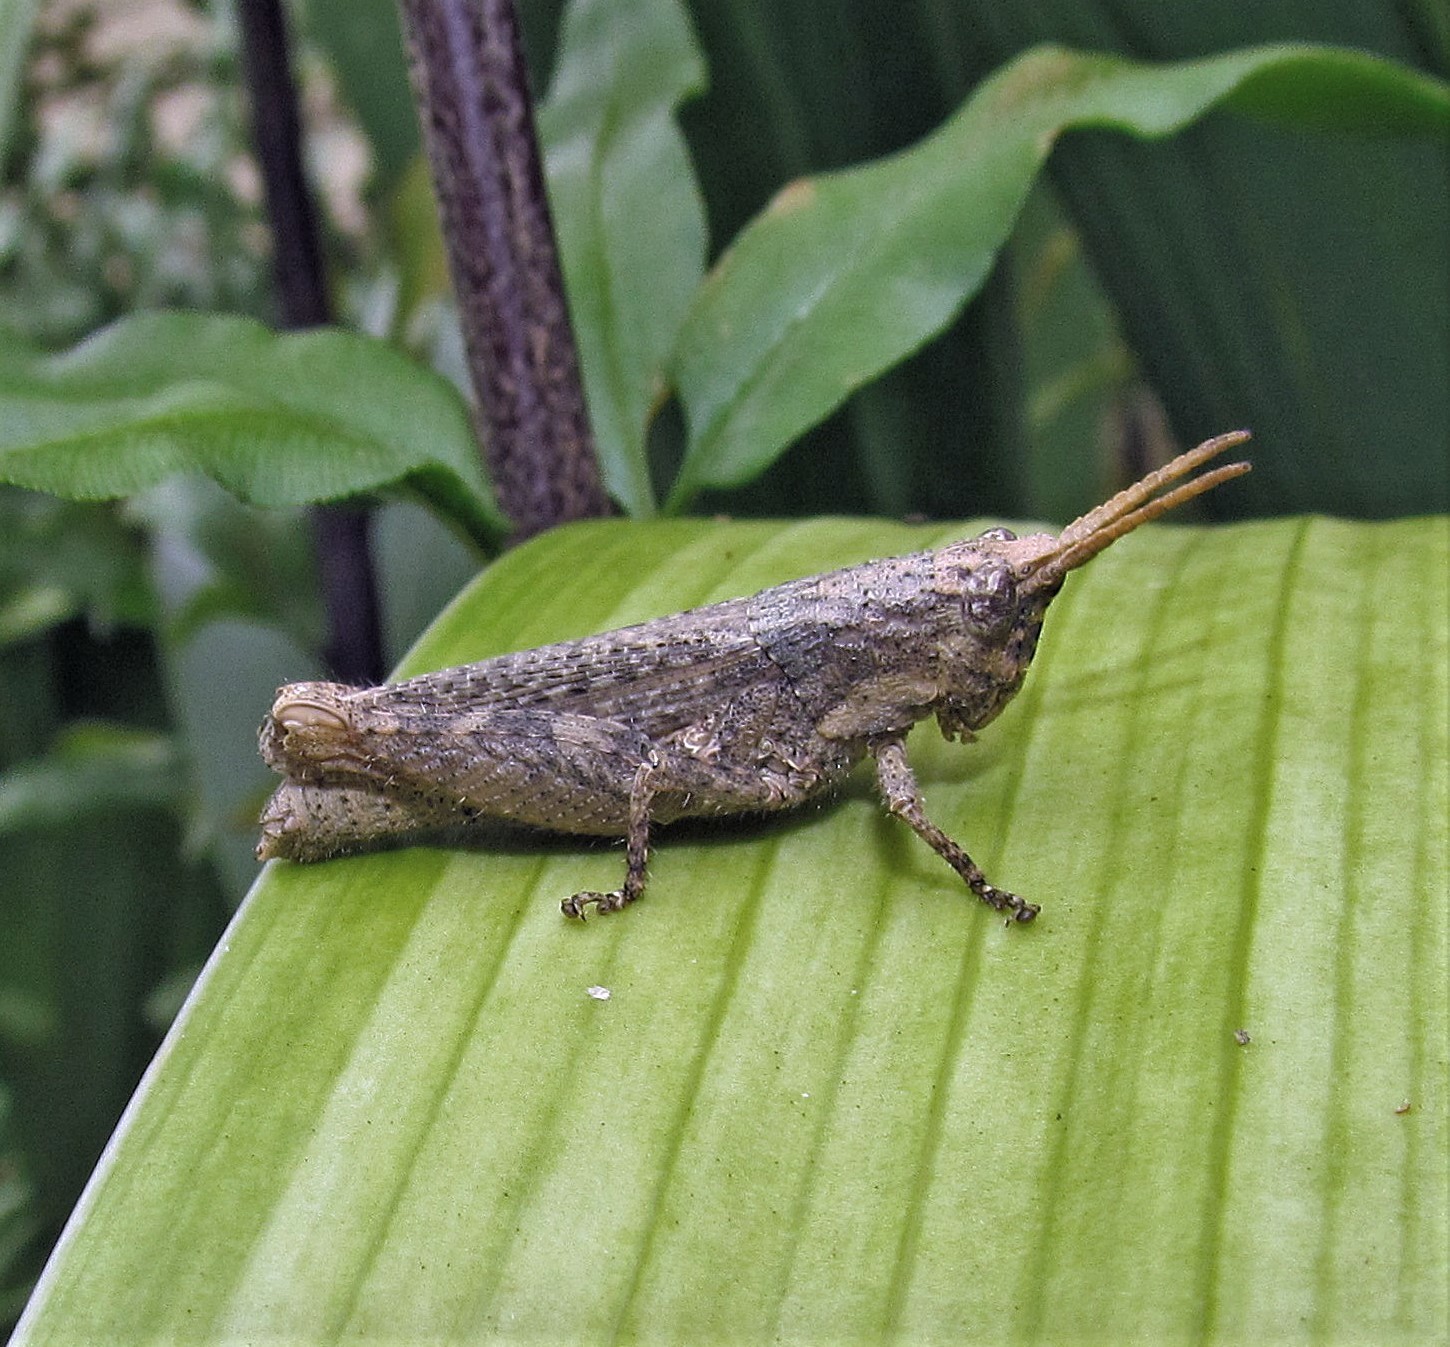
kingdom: Animalia
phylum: Arthropoda
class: Insecta
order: Orthoptera
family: Acrididae
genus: Vilerna
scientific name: Vilerna rugulosa
